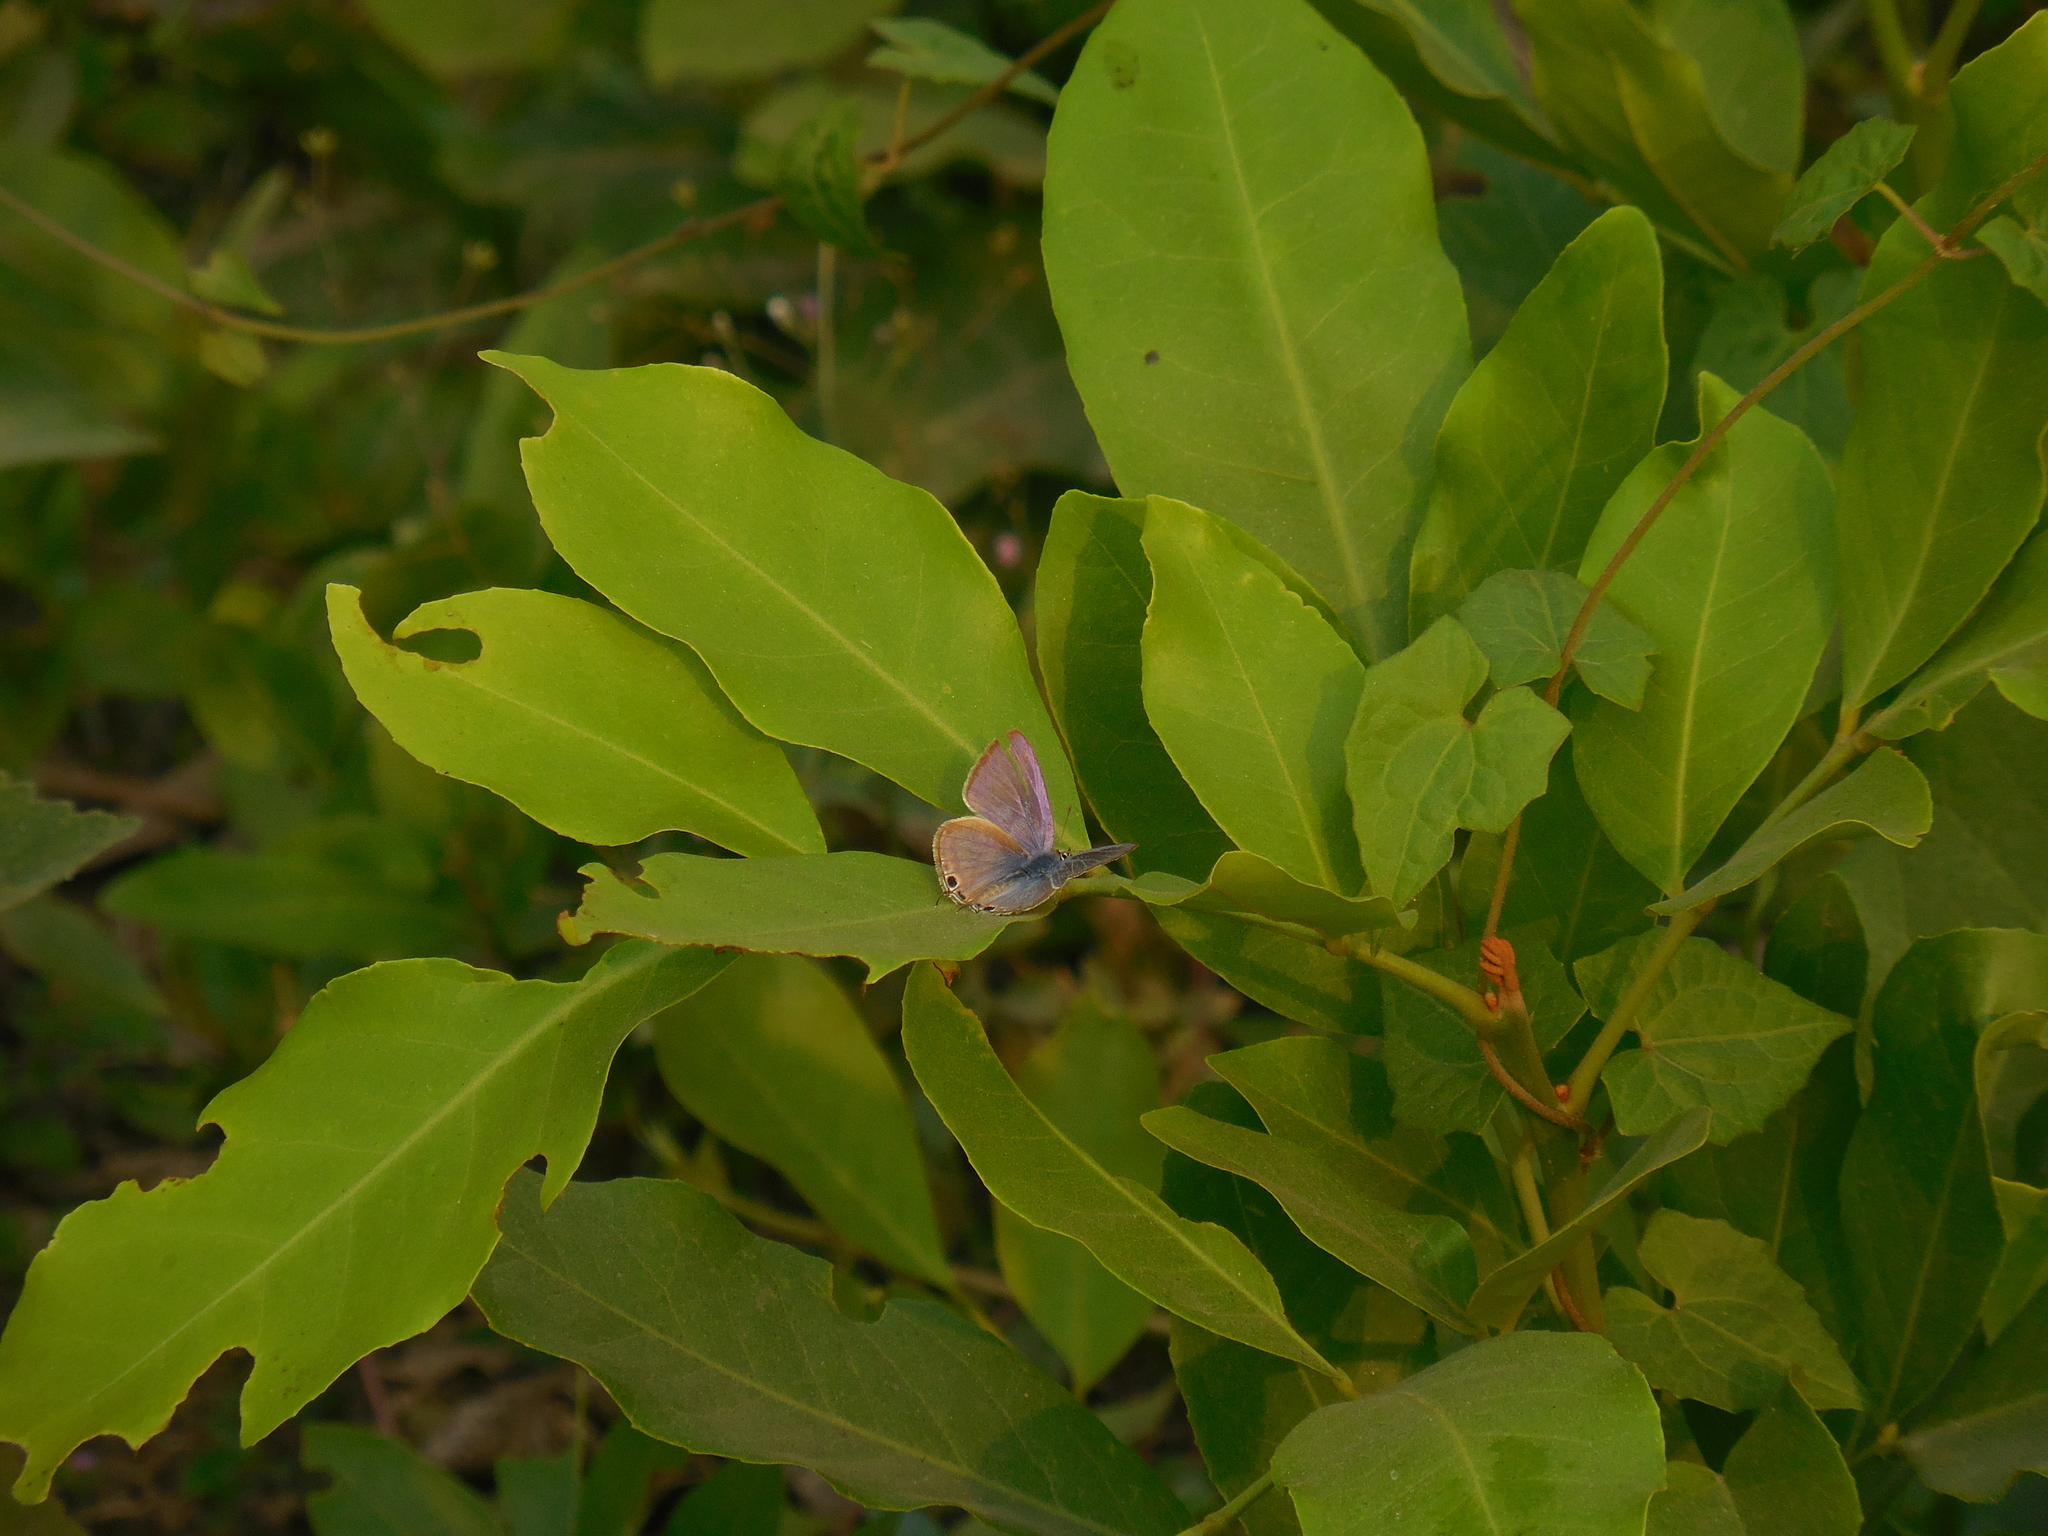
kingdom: Animalia
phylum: Arthropoda
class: Insecta
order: Lepidoptera
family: Lycaenidae
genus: Euchrysops
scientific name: Euchrysops cnejus
